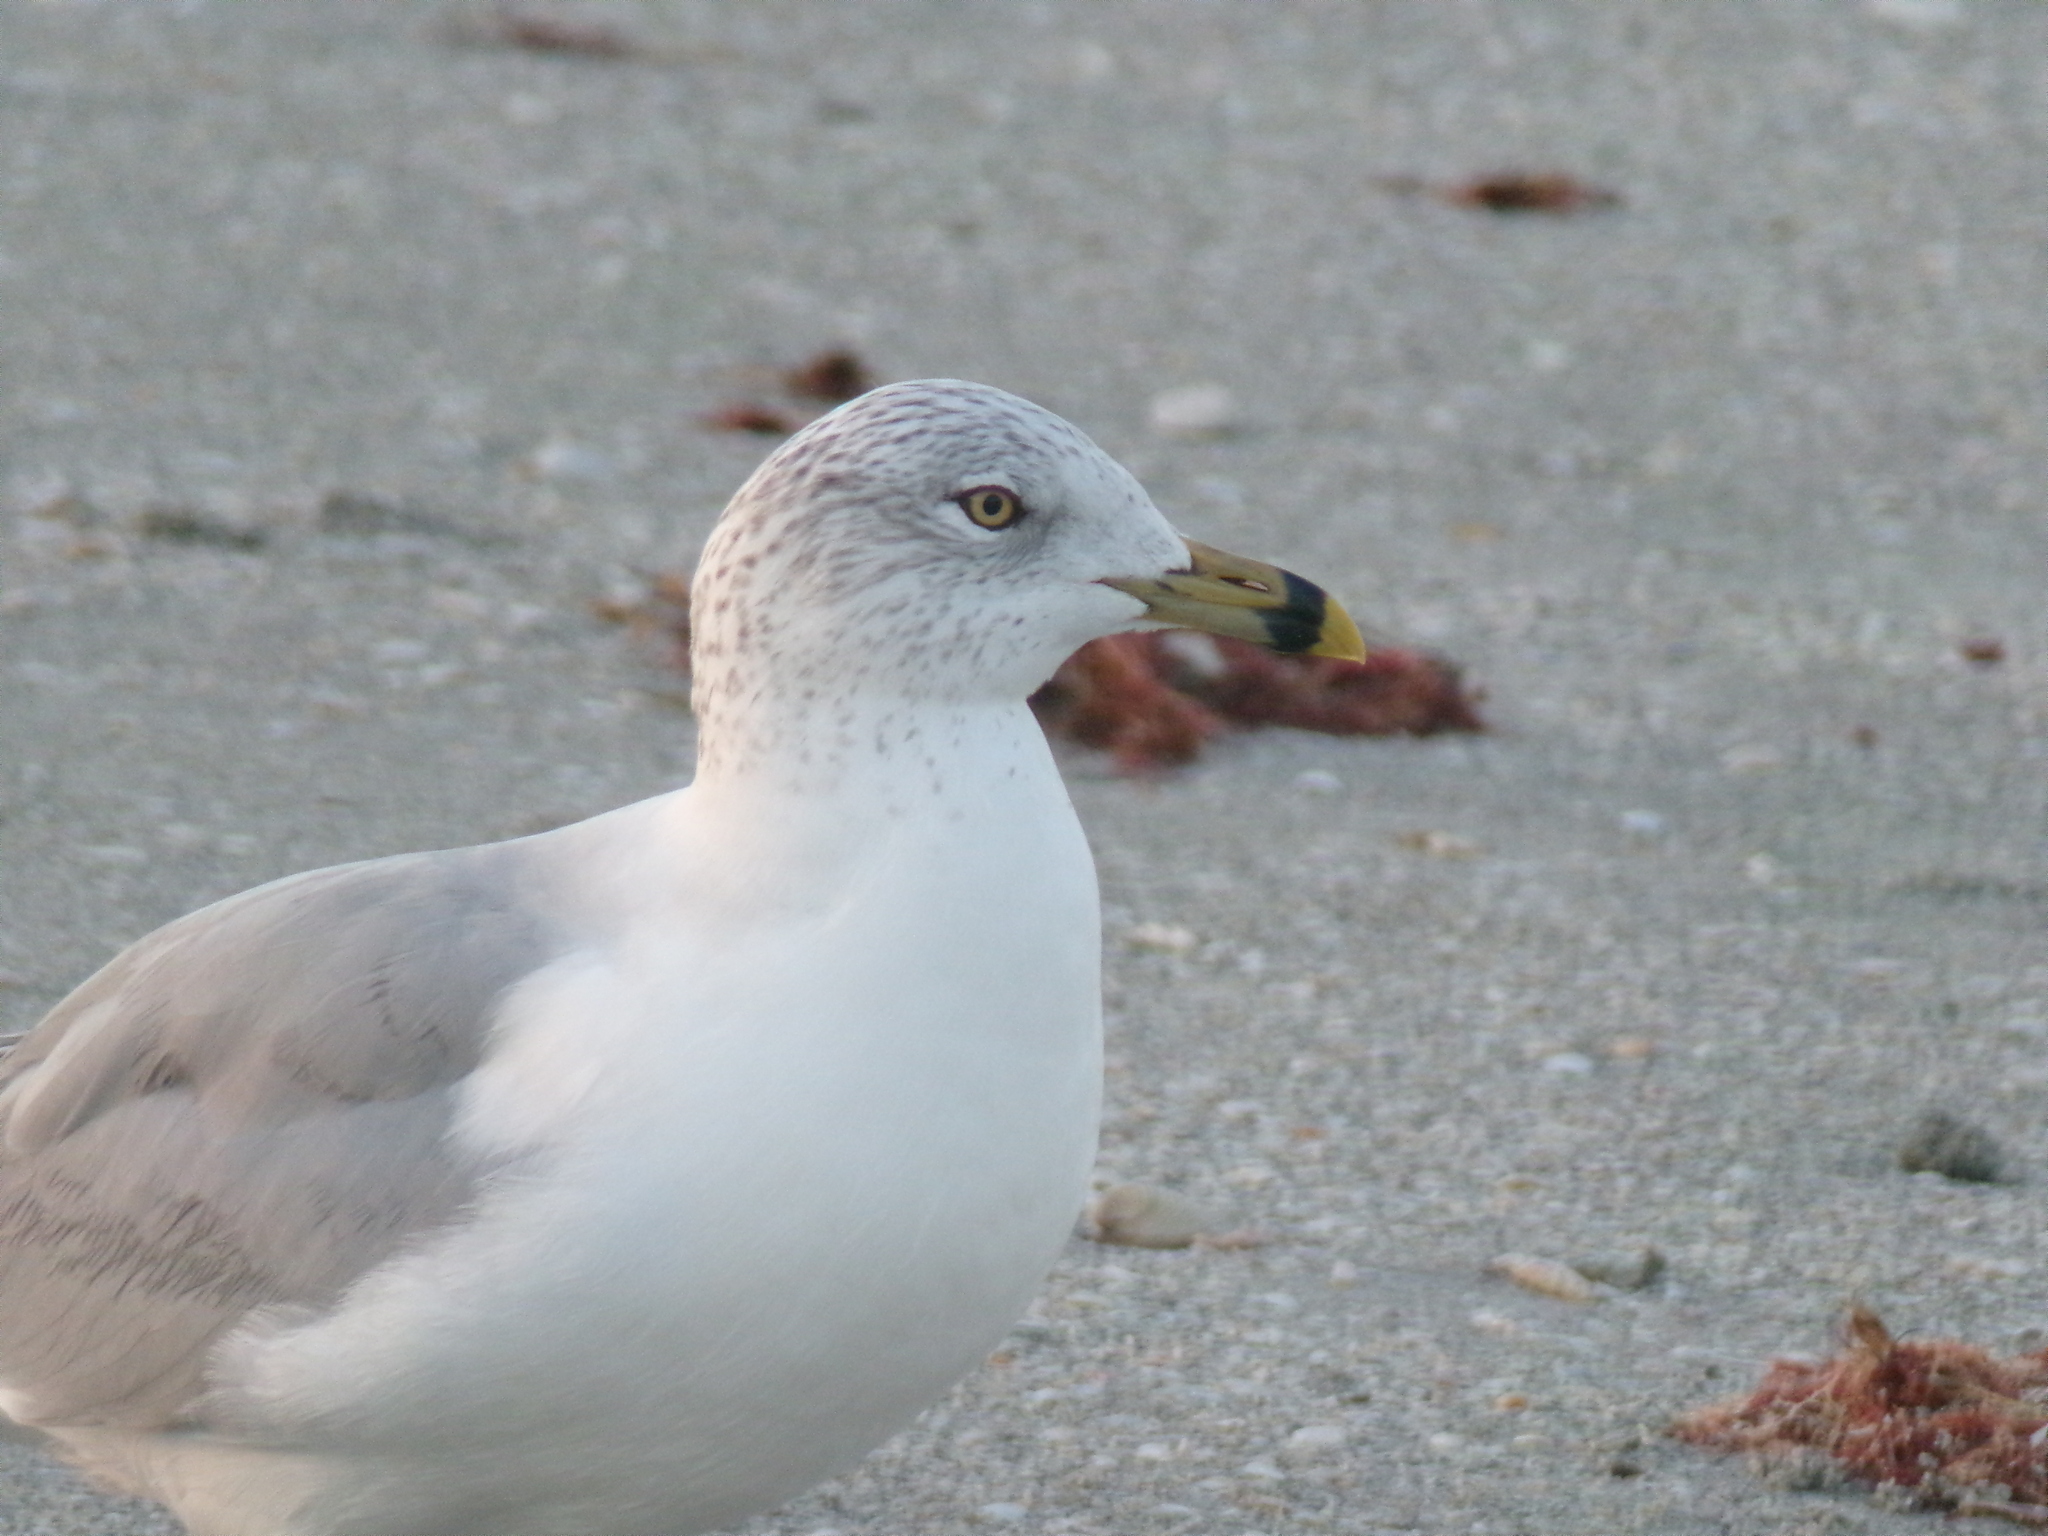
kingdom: Animalia
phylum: Chordata
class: Aves
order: Charadriiformes
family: Laridae
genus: Larus
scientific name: Larus delawarensis
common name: Ring-billed gull
